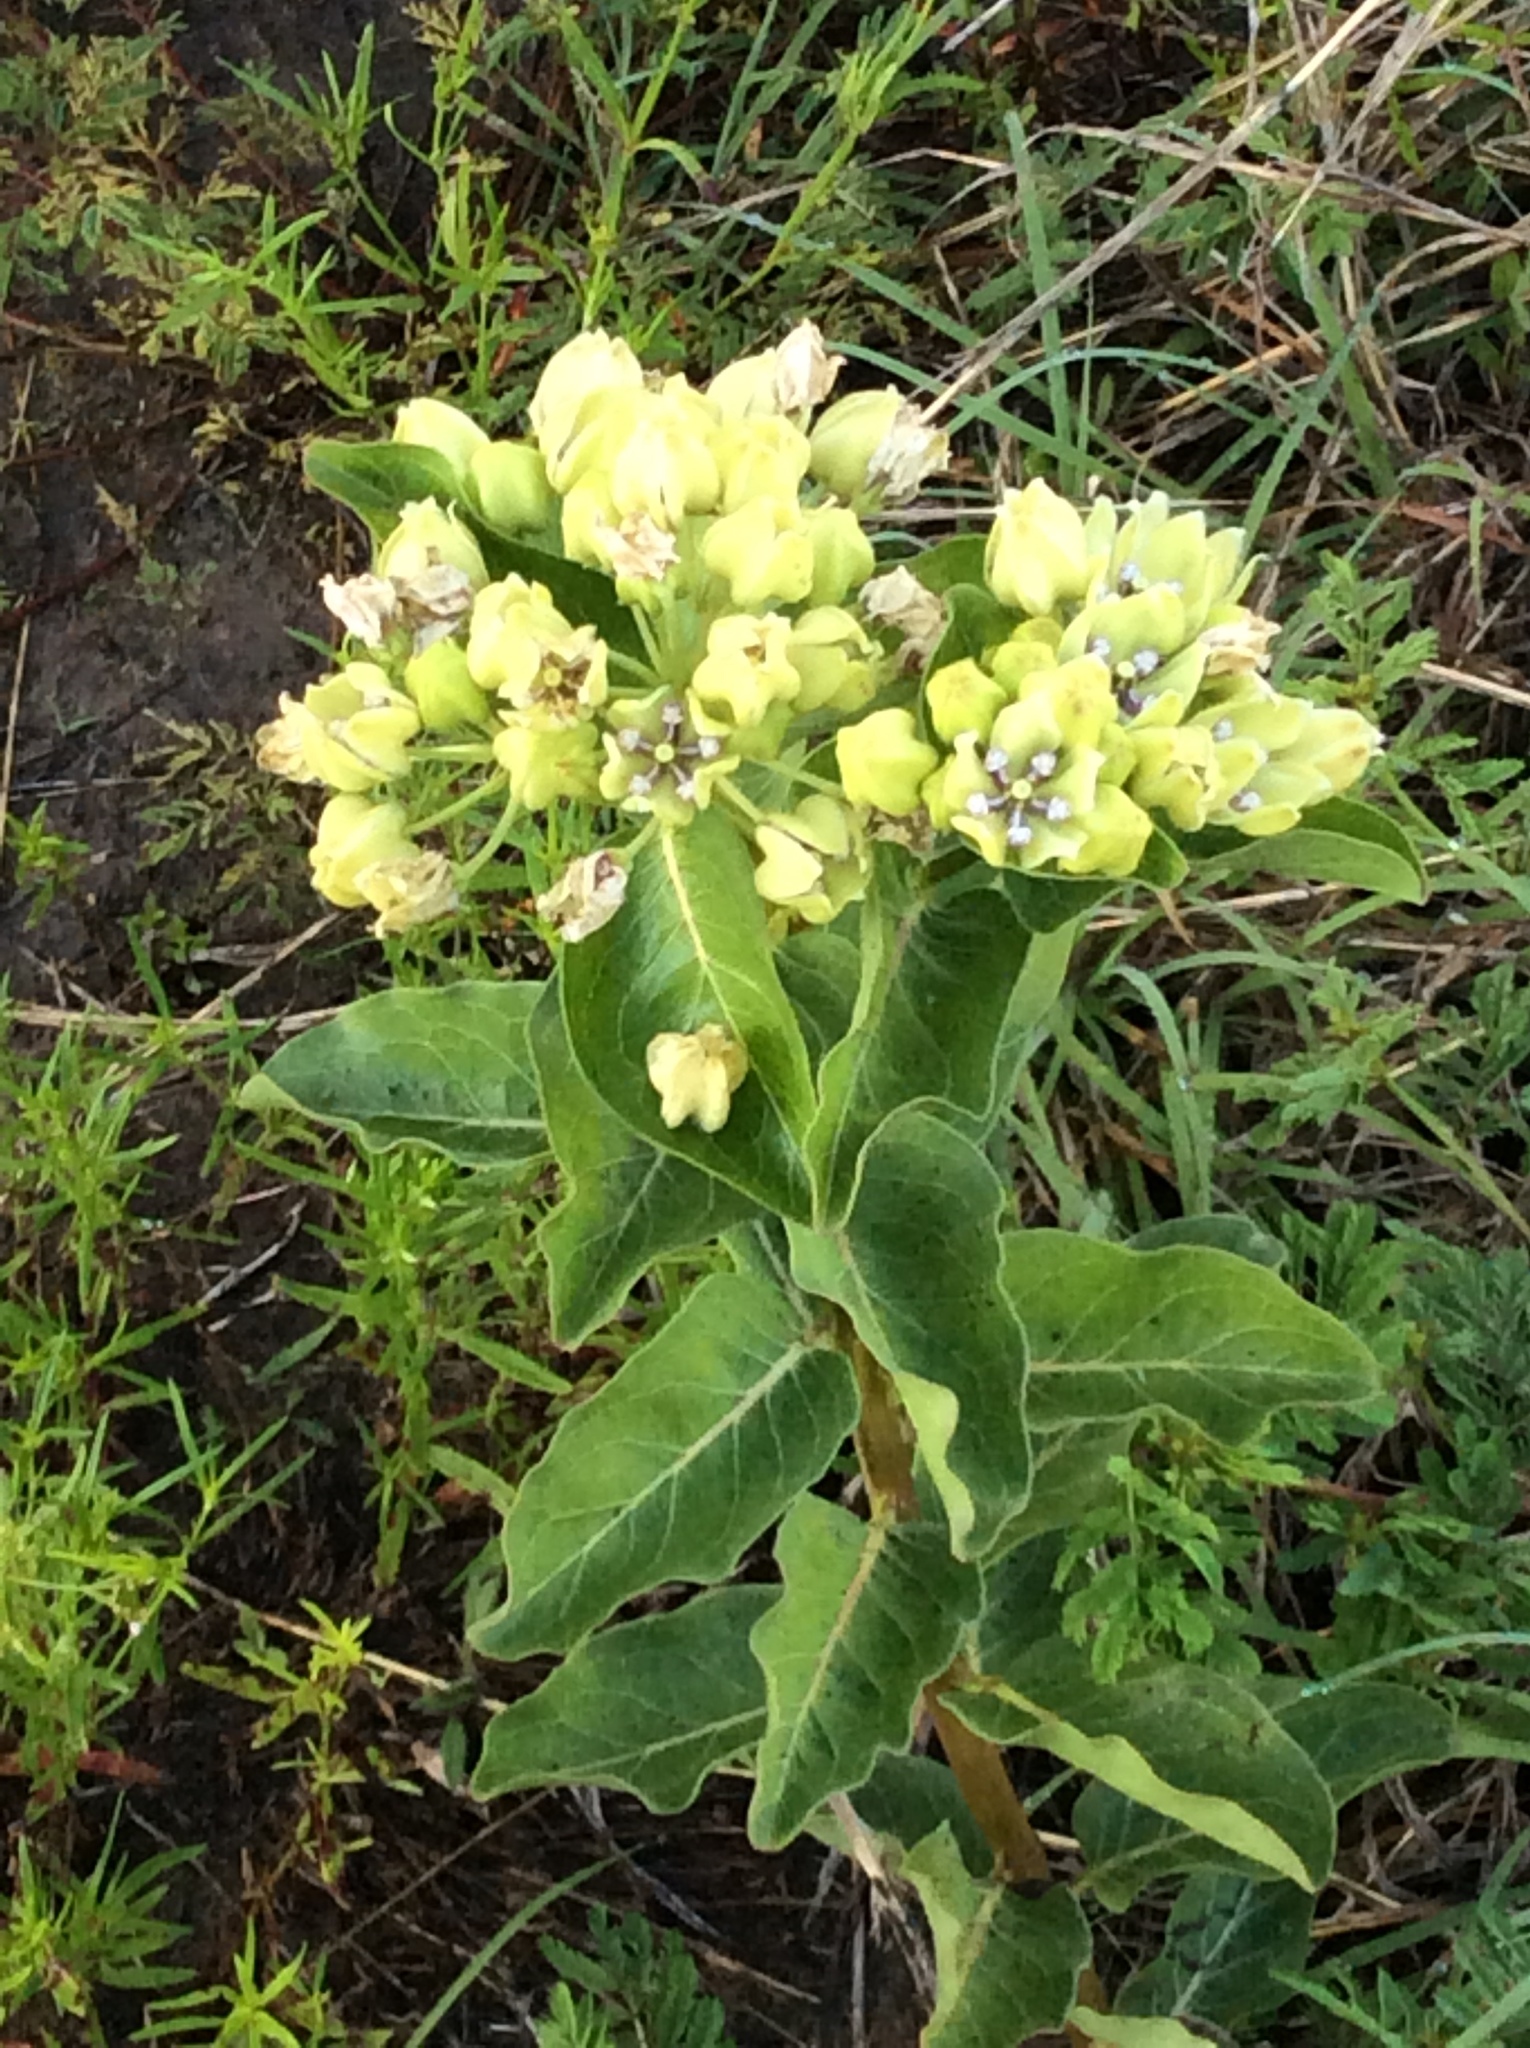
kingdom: Plantae
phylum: Tracheophyta
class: Magnoliopsida
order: Gentianales
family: Apocynaceae
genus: Asclepias
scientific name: Asclepias viridis
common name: Antelope-horns
